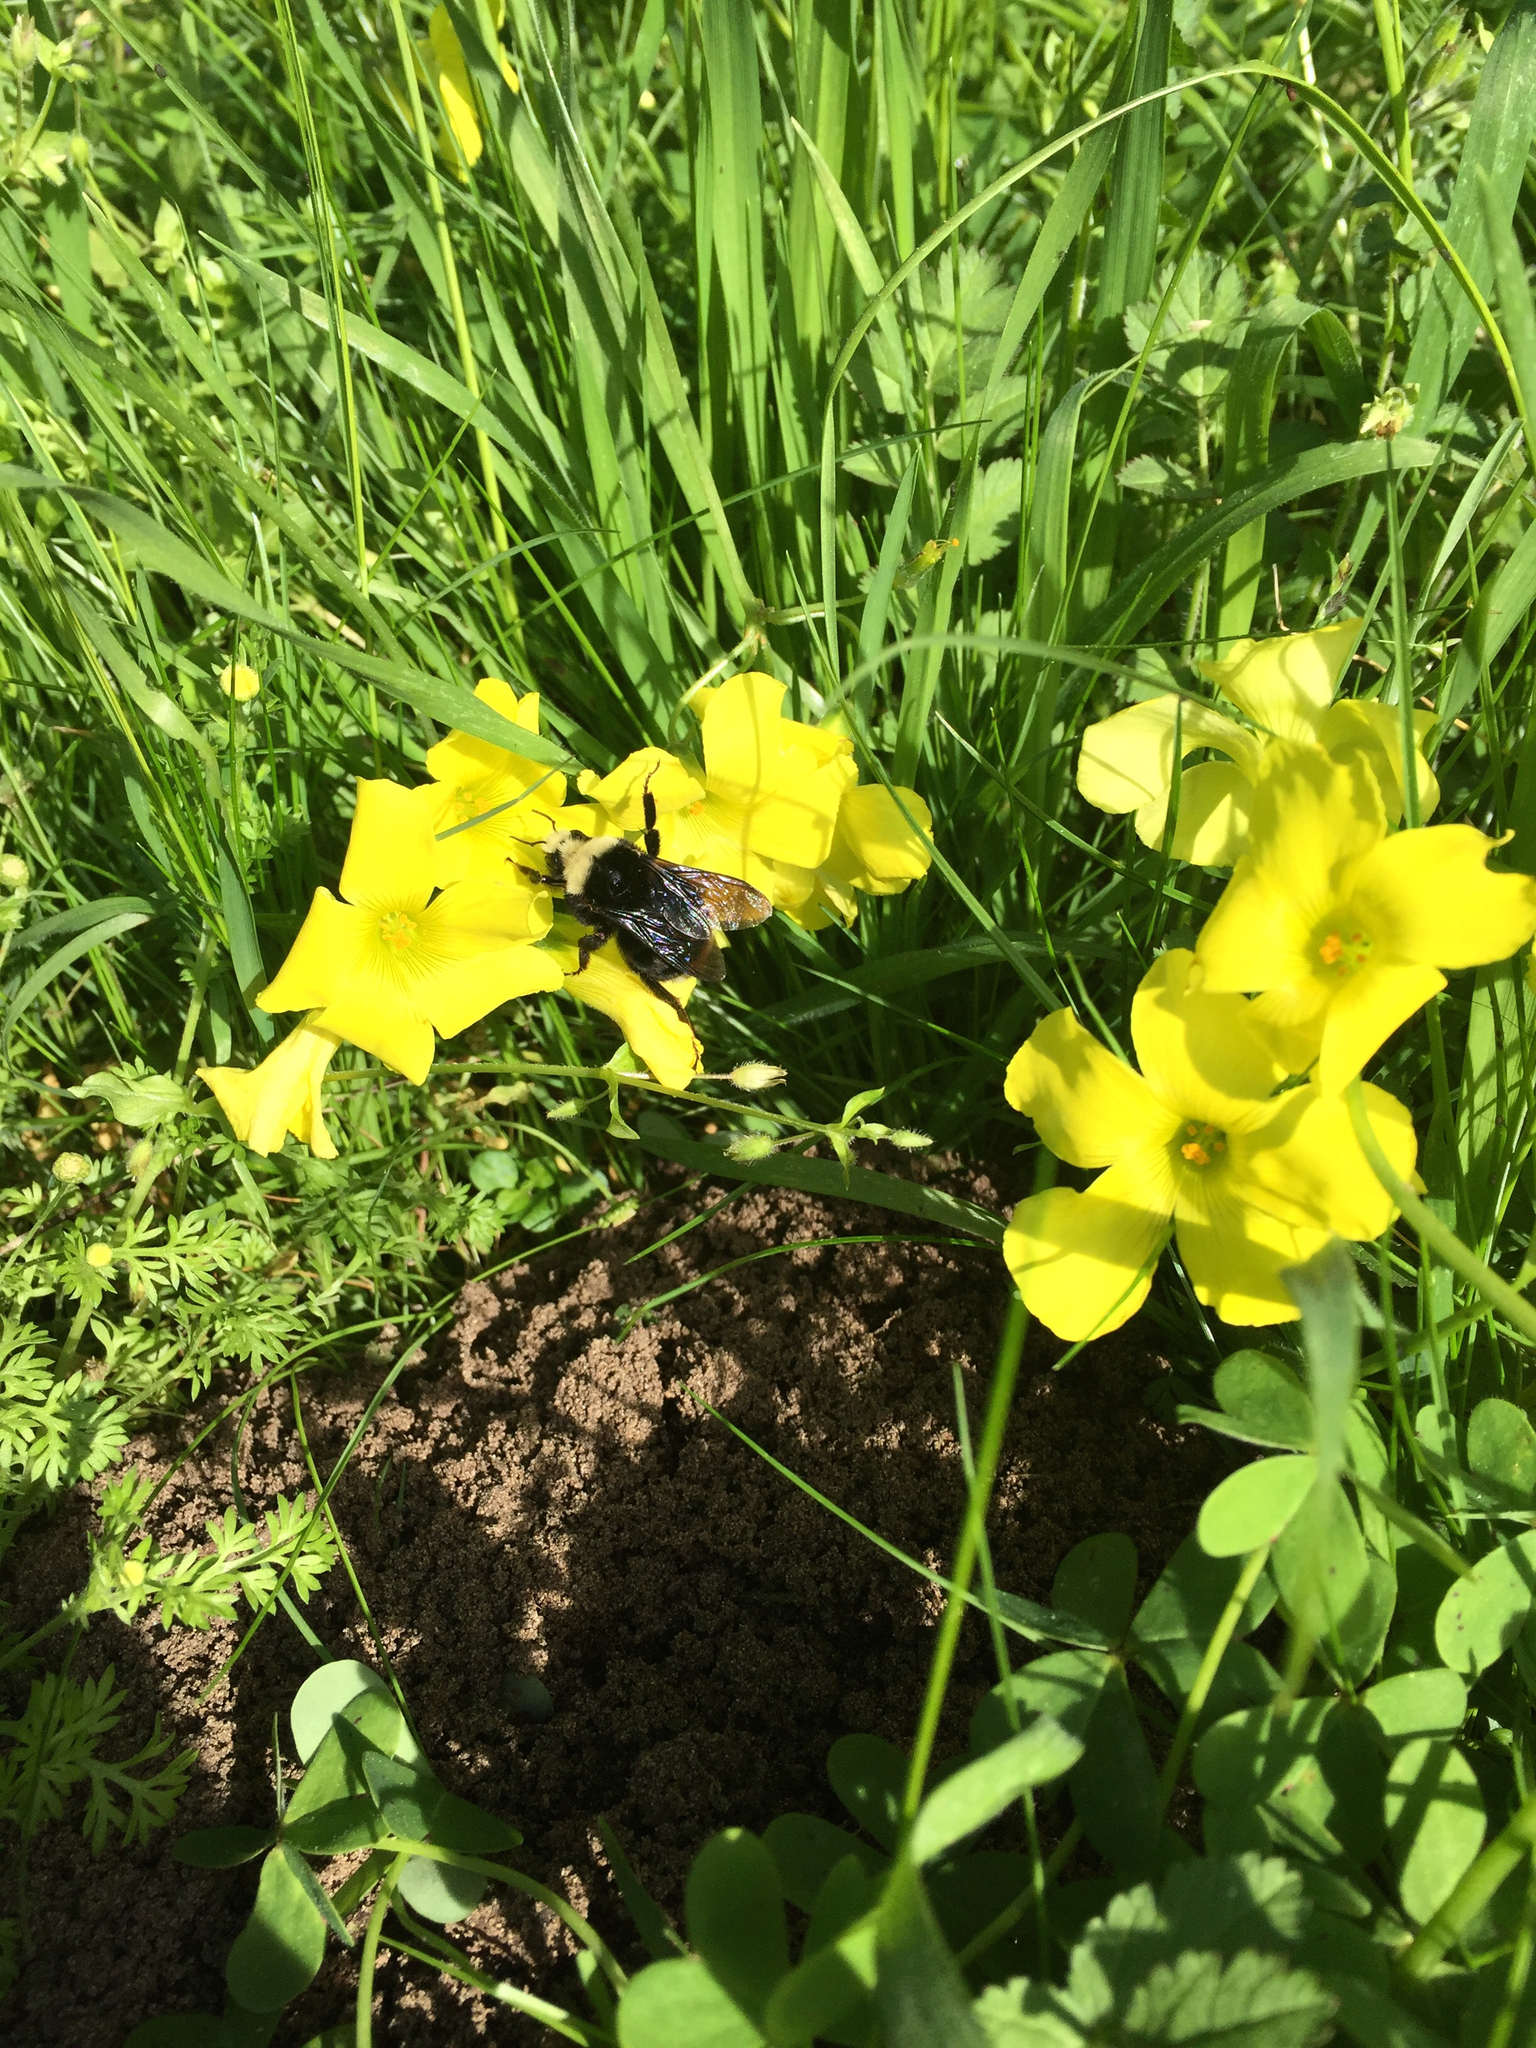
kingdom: Animalia
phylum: Arthropoda
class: Insecta
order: Hymenoptera
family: Apidae
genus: Bombus
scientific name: Bombus vosnesenskii
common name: Vosnesensky bumble bee
